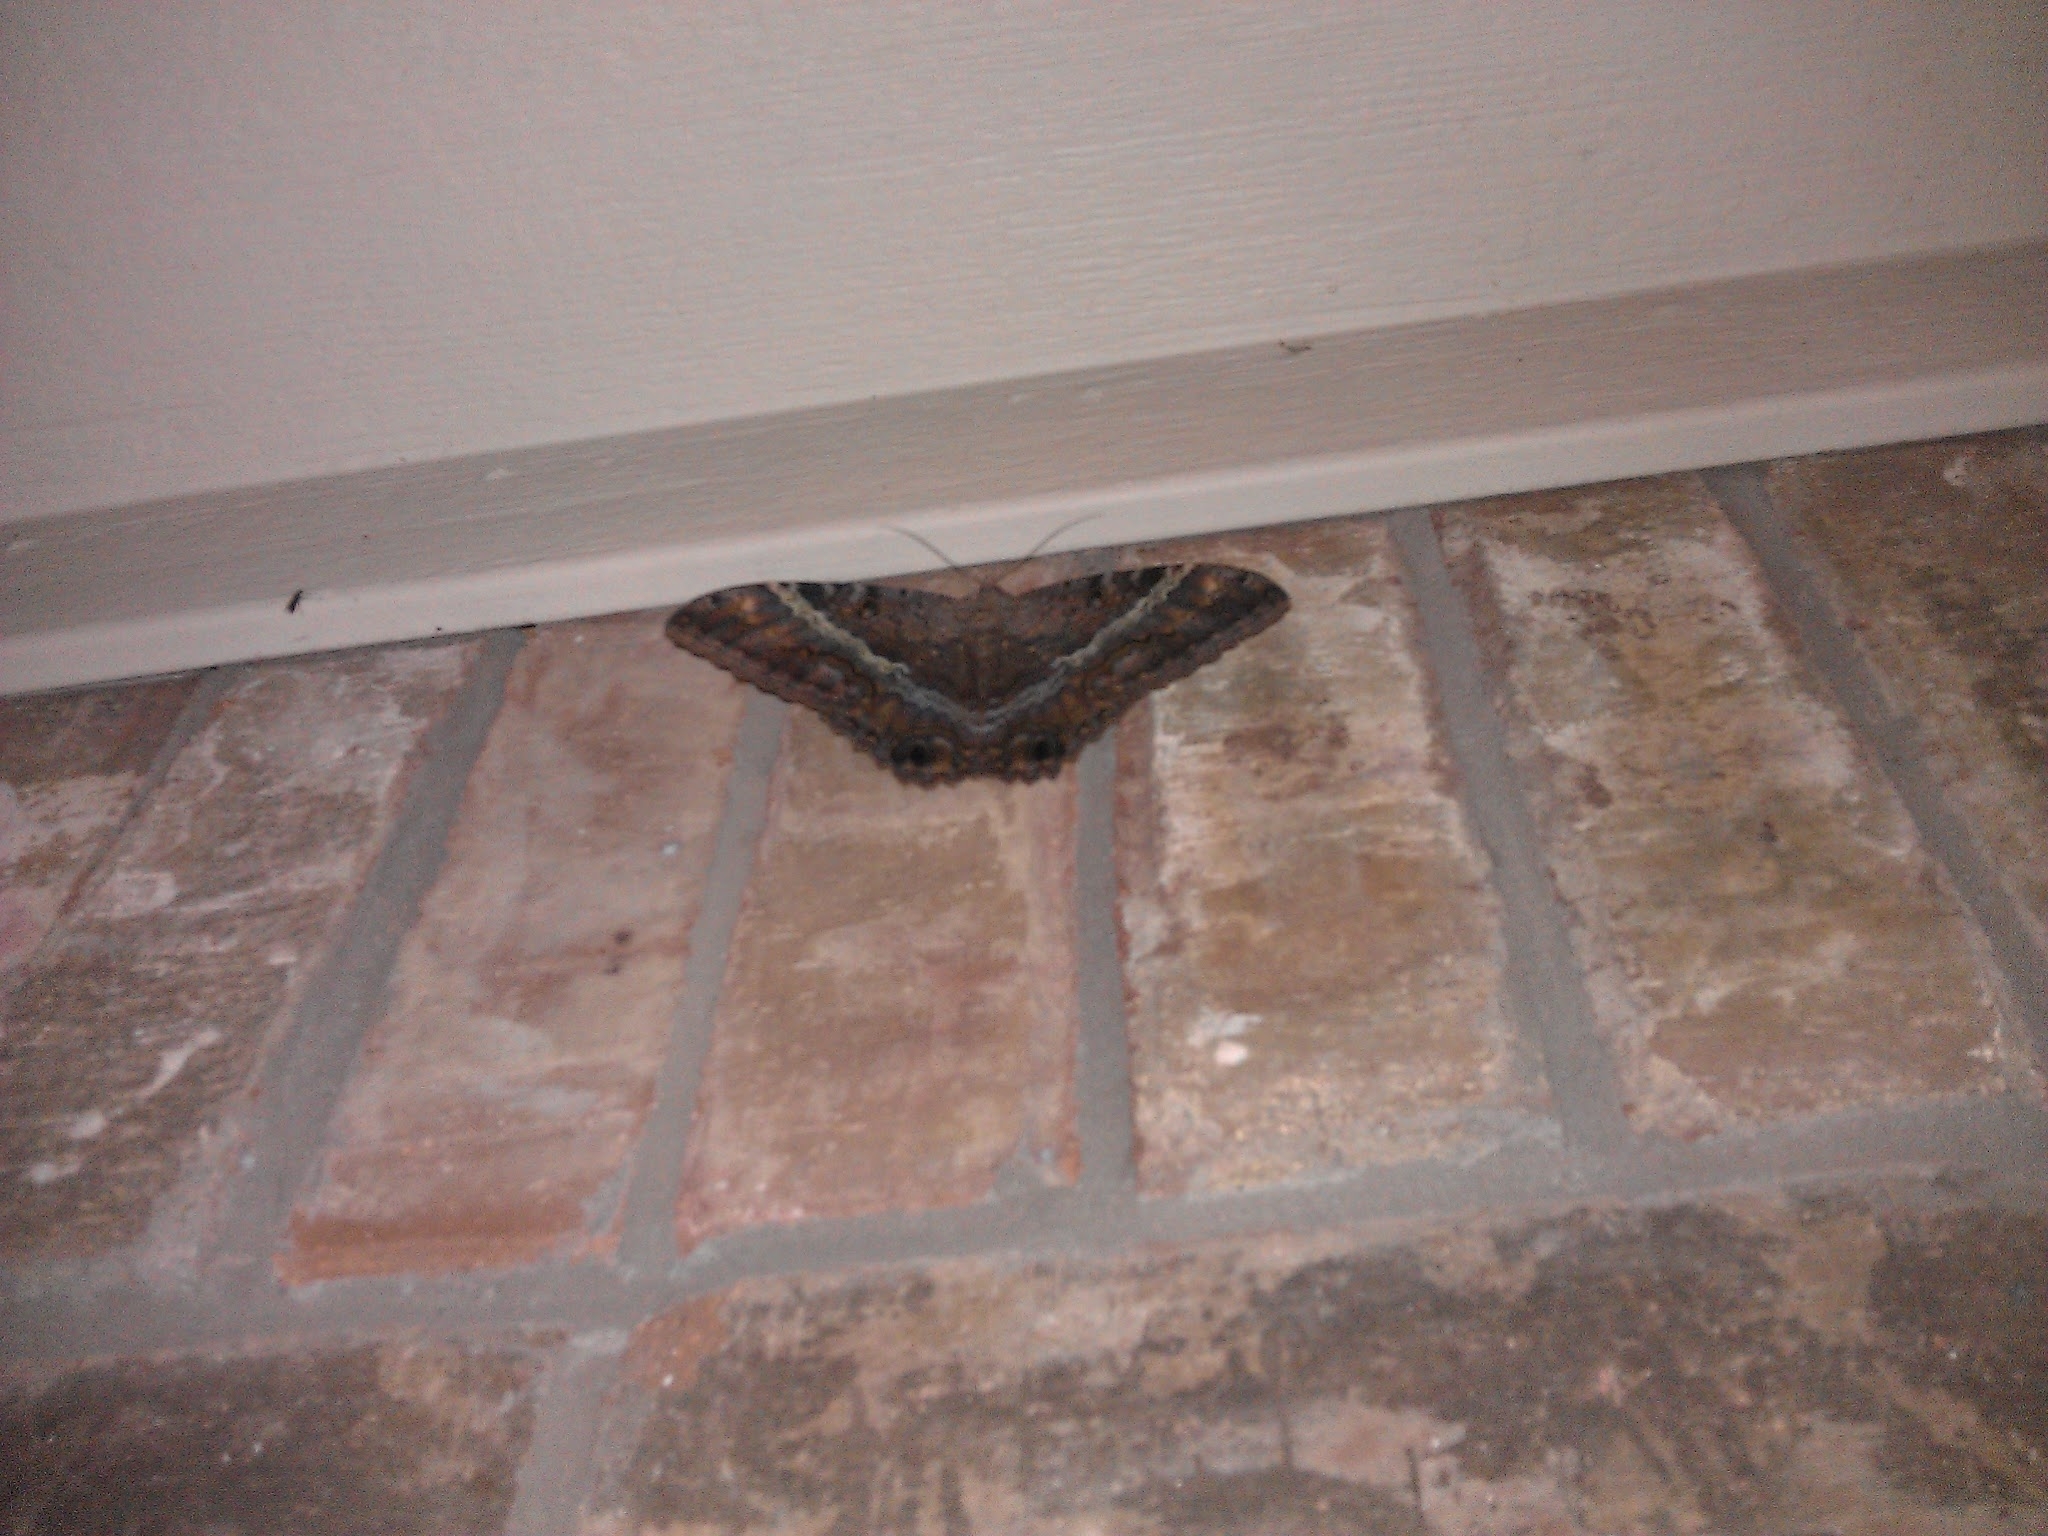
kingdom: Animalia
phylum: Arthropoda
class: Insecta
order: Lepidoptera
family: Erebidae
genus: Ascalapha
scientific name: Ascalapha odorata
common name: Black witch
